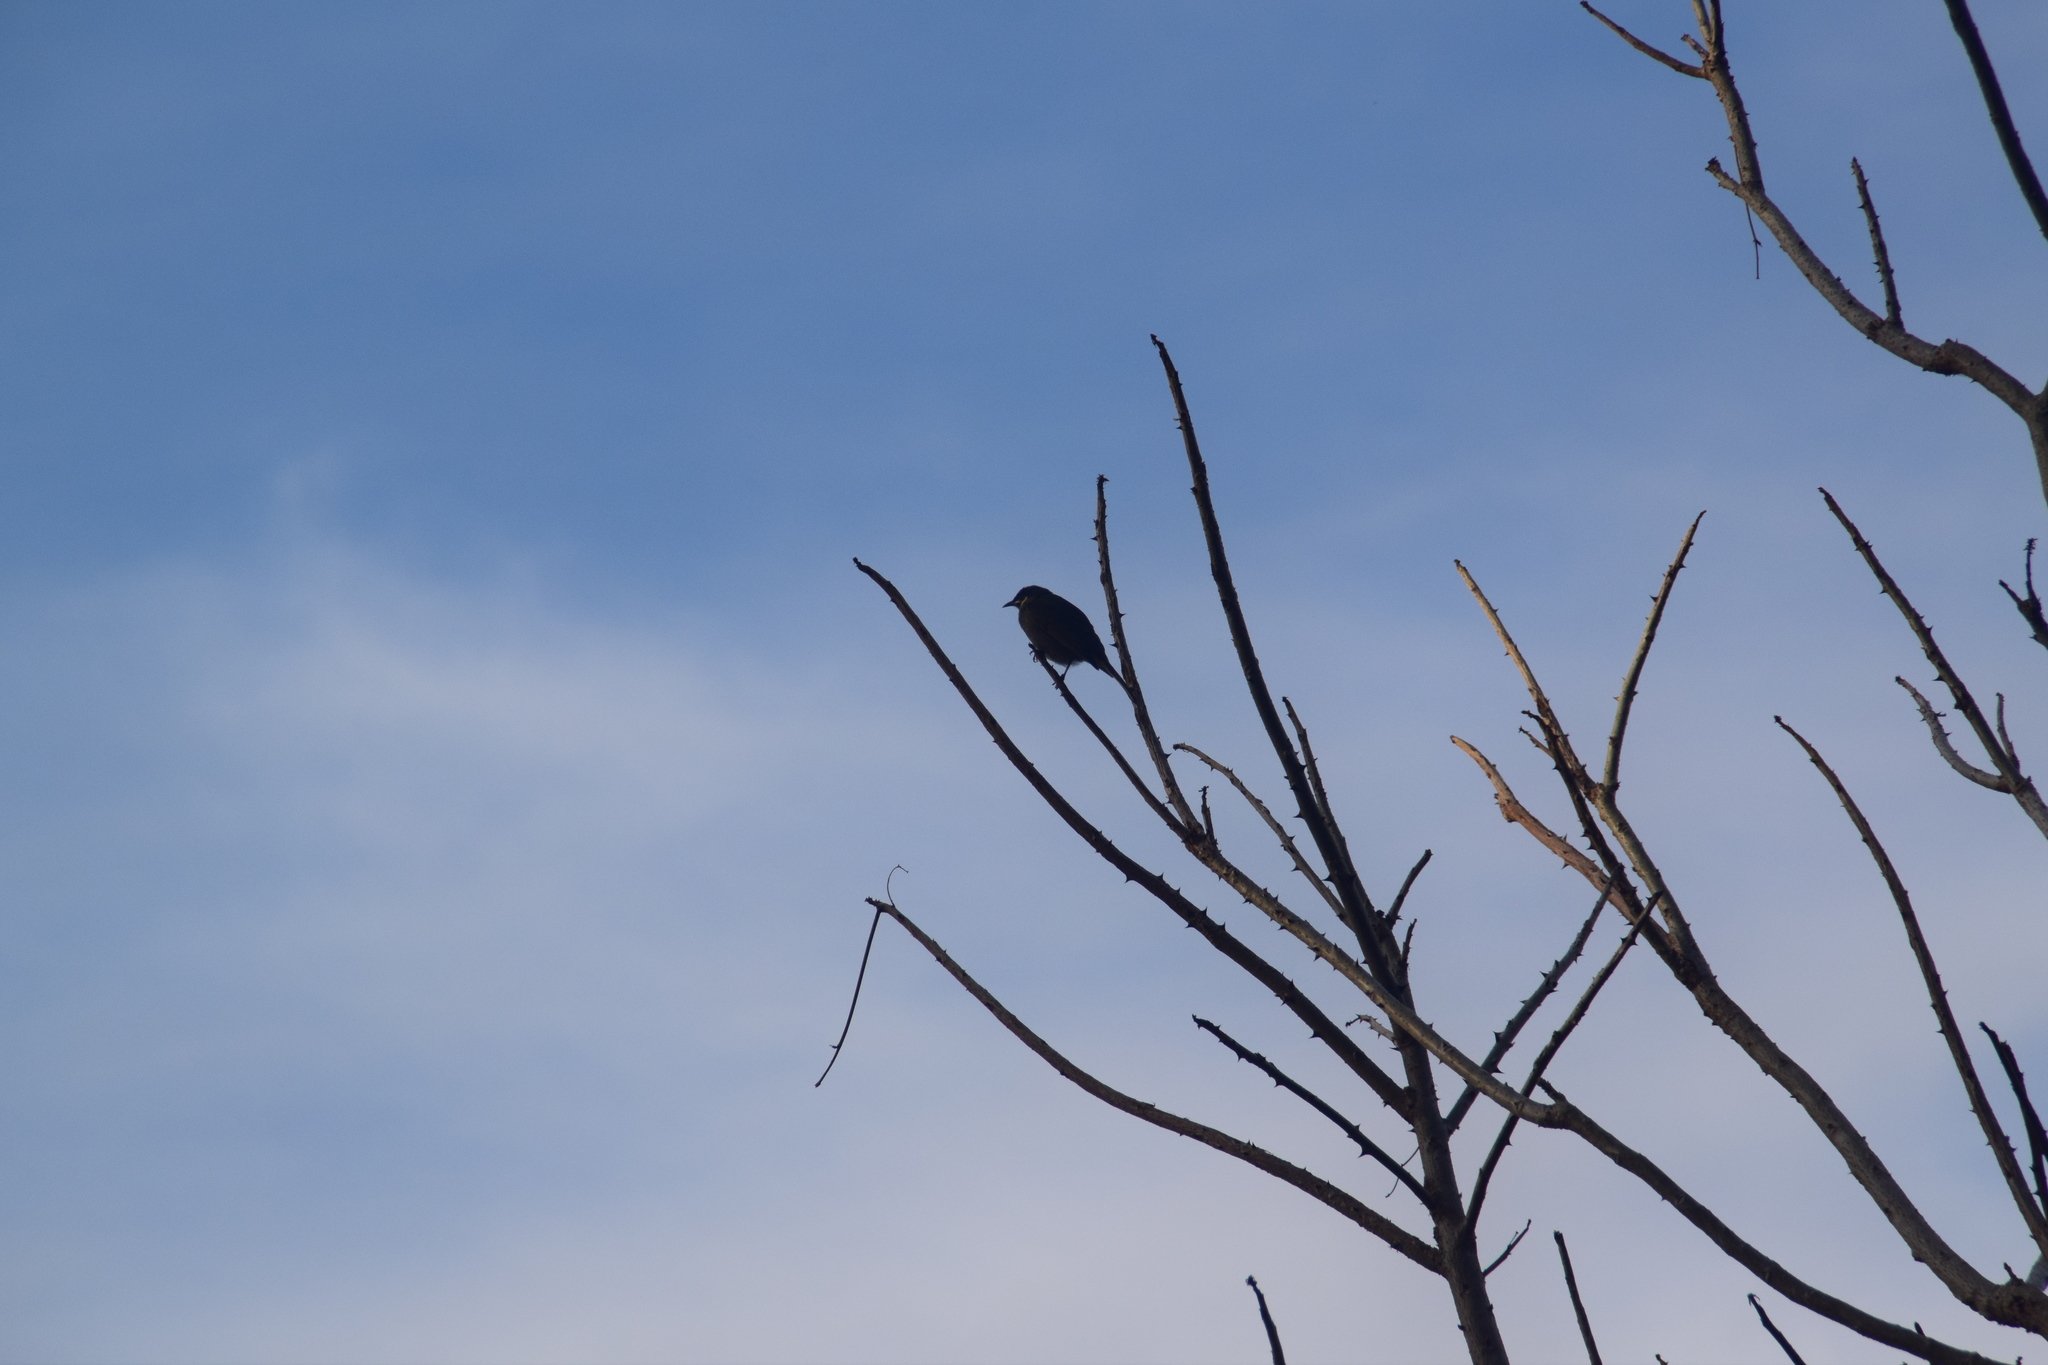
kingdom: Animalia
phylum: Chordata
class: Aves
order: Passeriformes
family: Meliphagidae
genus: Meliphaga
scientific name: Meliphaga lewinii
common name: Lewin's honeyeater
